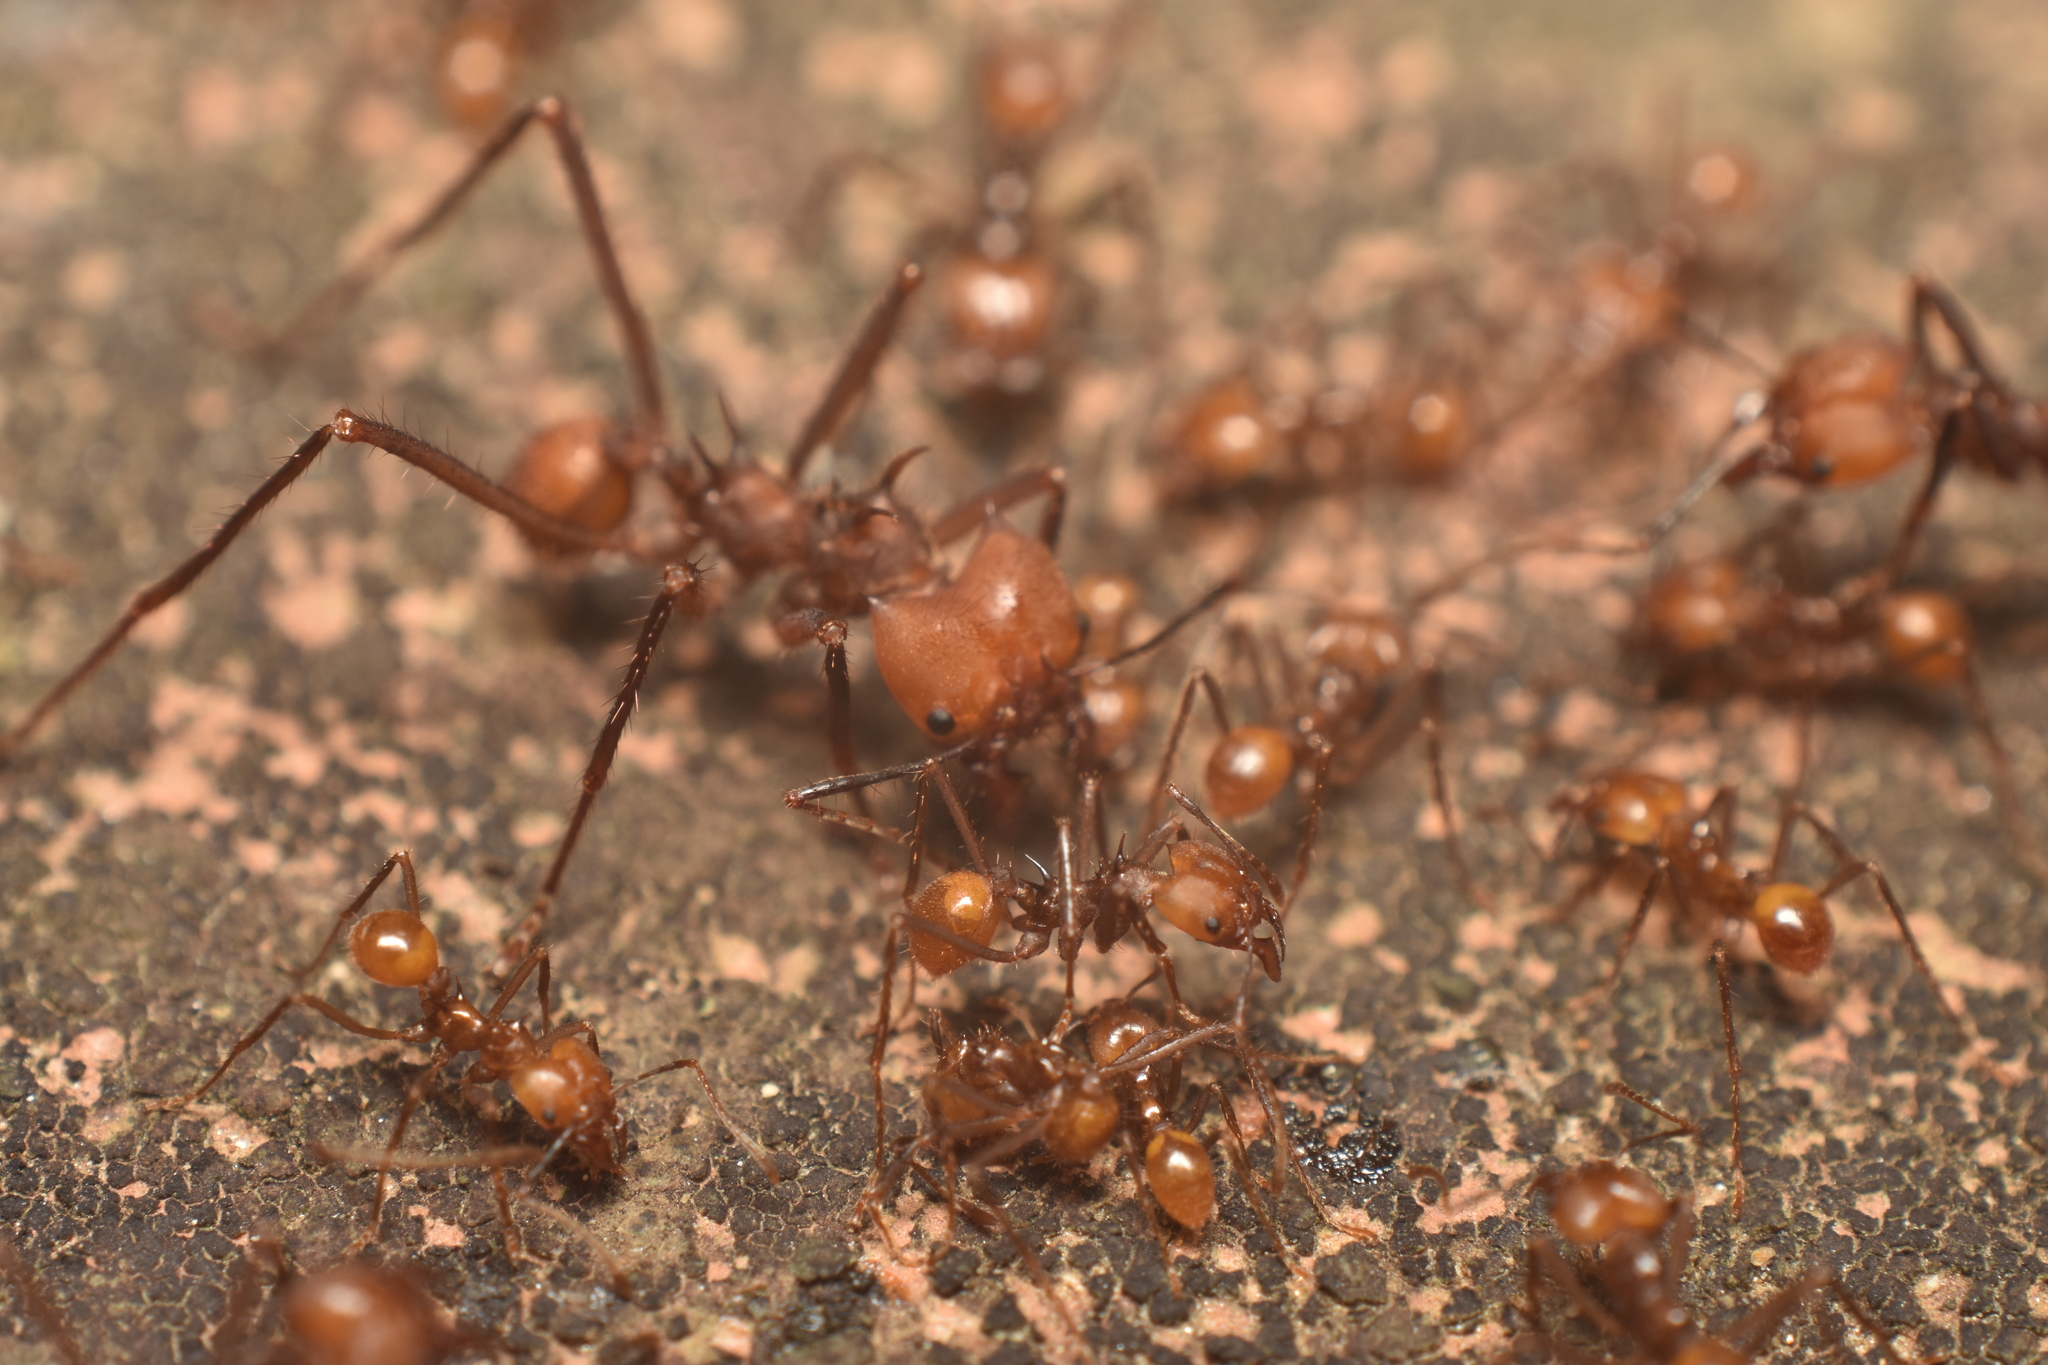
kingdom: Animalia
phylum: Arthropoda
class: Insecta
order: Hymenoptera
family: Formicidae
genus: Atta
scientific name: Atta cephalotes
